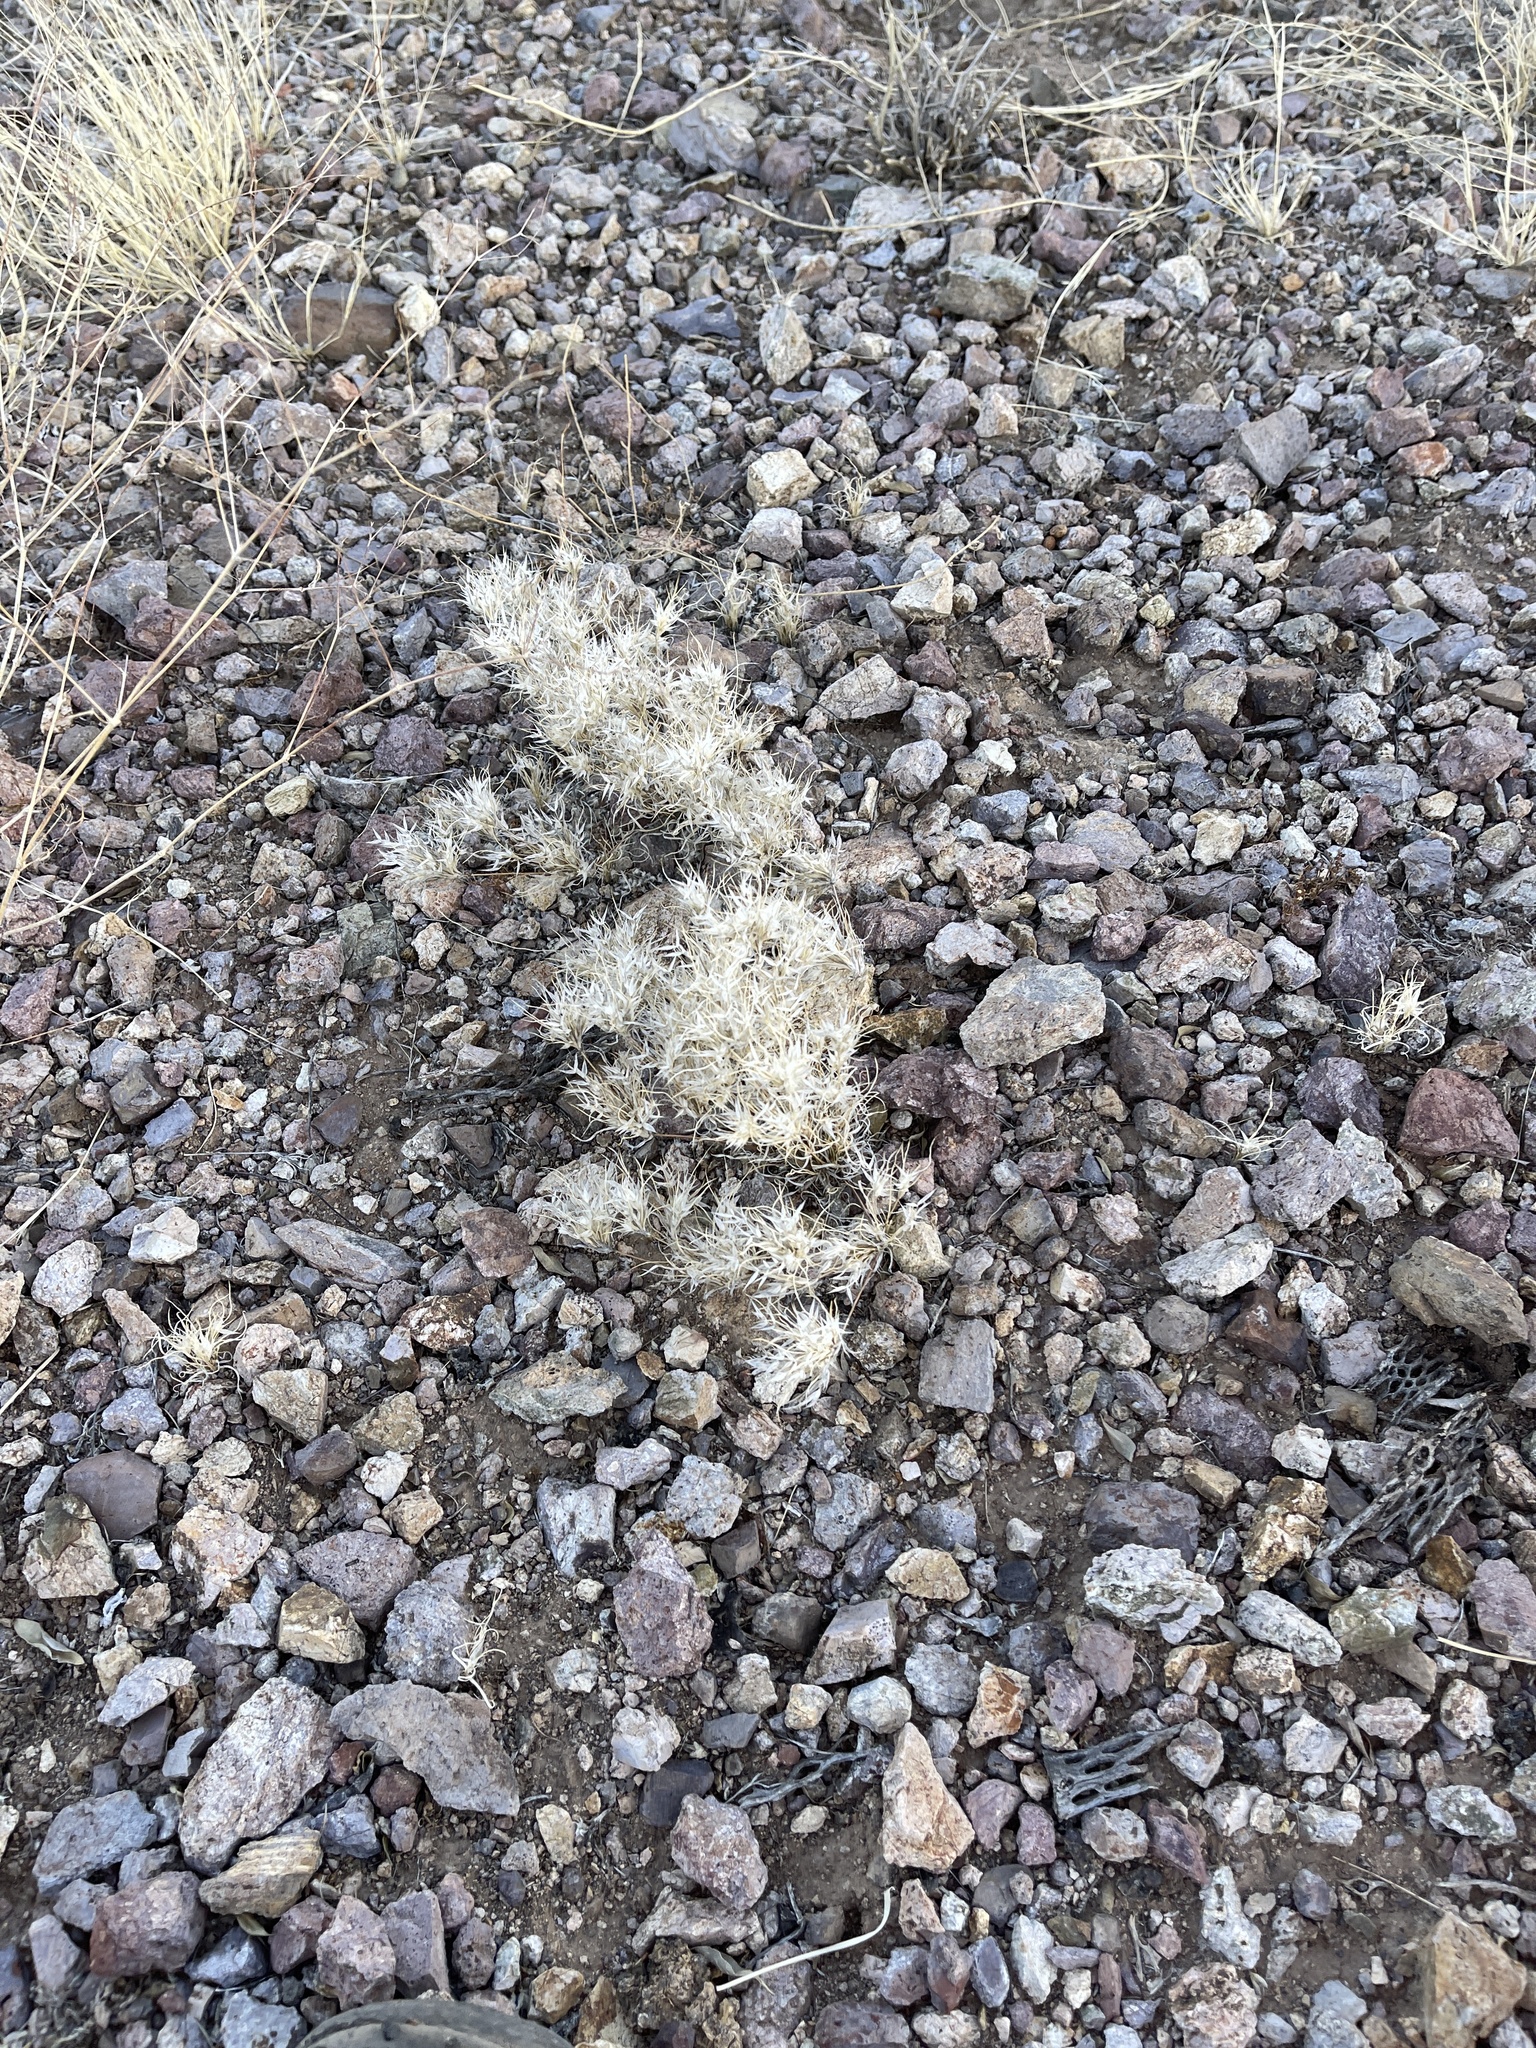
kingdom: Plantae
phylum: Tracheophyta
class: Liliopsida
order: Poales
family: Poaceae
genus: Dasyochloa
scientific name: Dasyochloa pulchella
